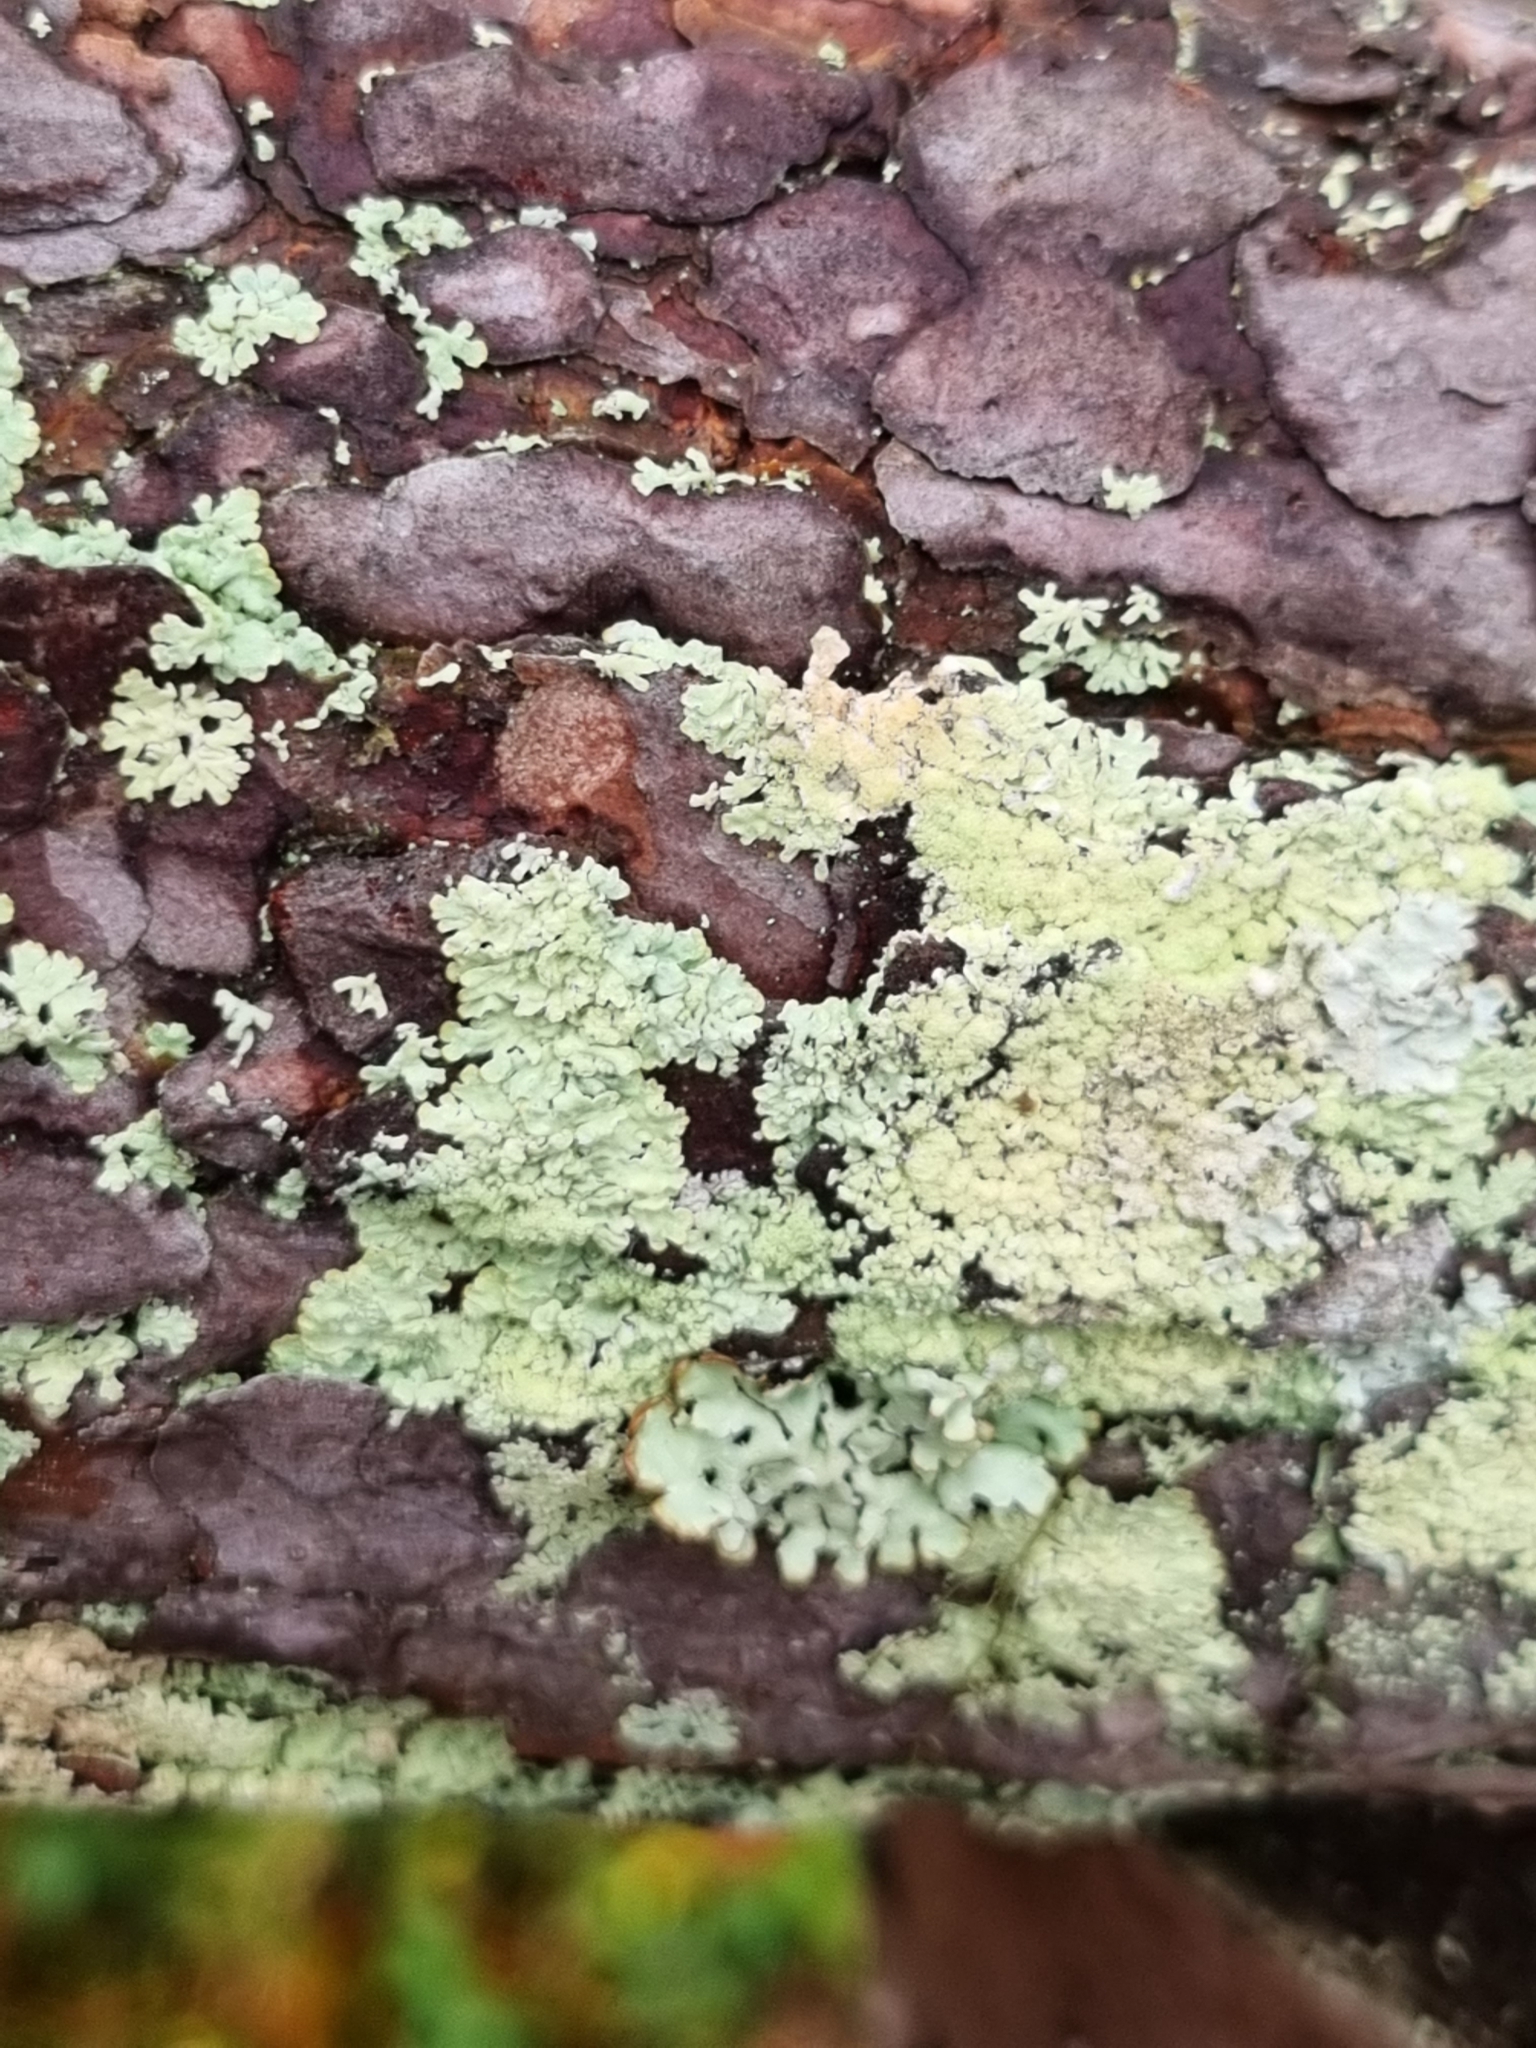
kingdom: Fungi
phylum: Ascomycota
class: Lecanoromycetes
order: Lecanorales
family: Parmeliaceae
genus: Parmeliopsis
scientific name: Parmeliopsis ambigua
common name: Green starburst lichen
